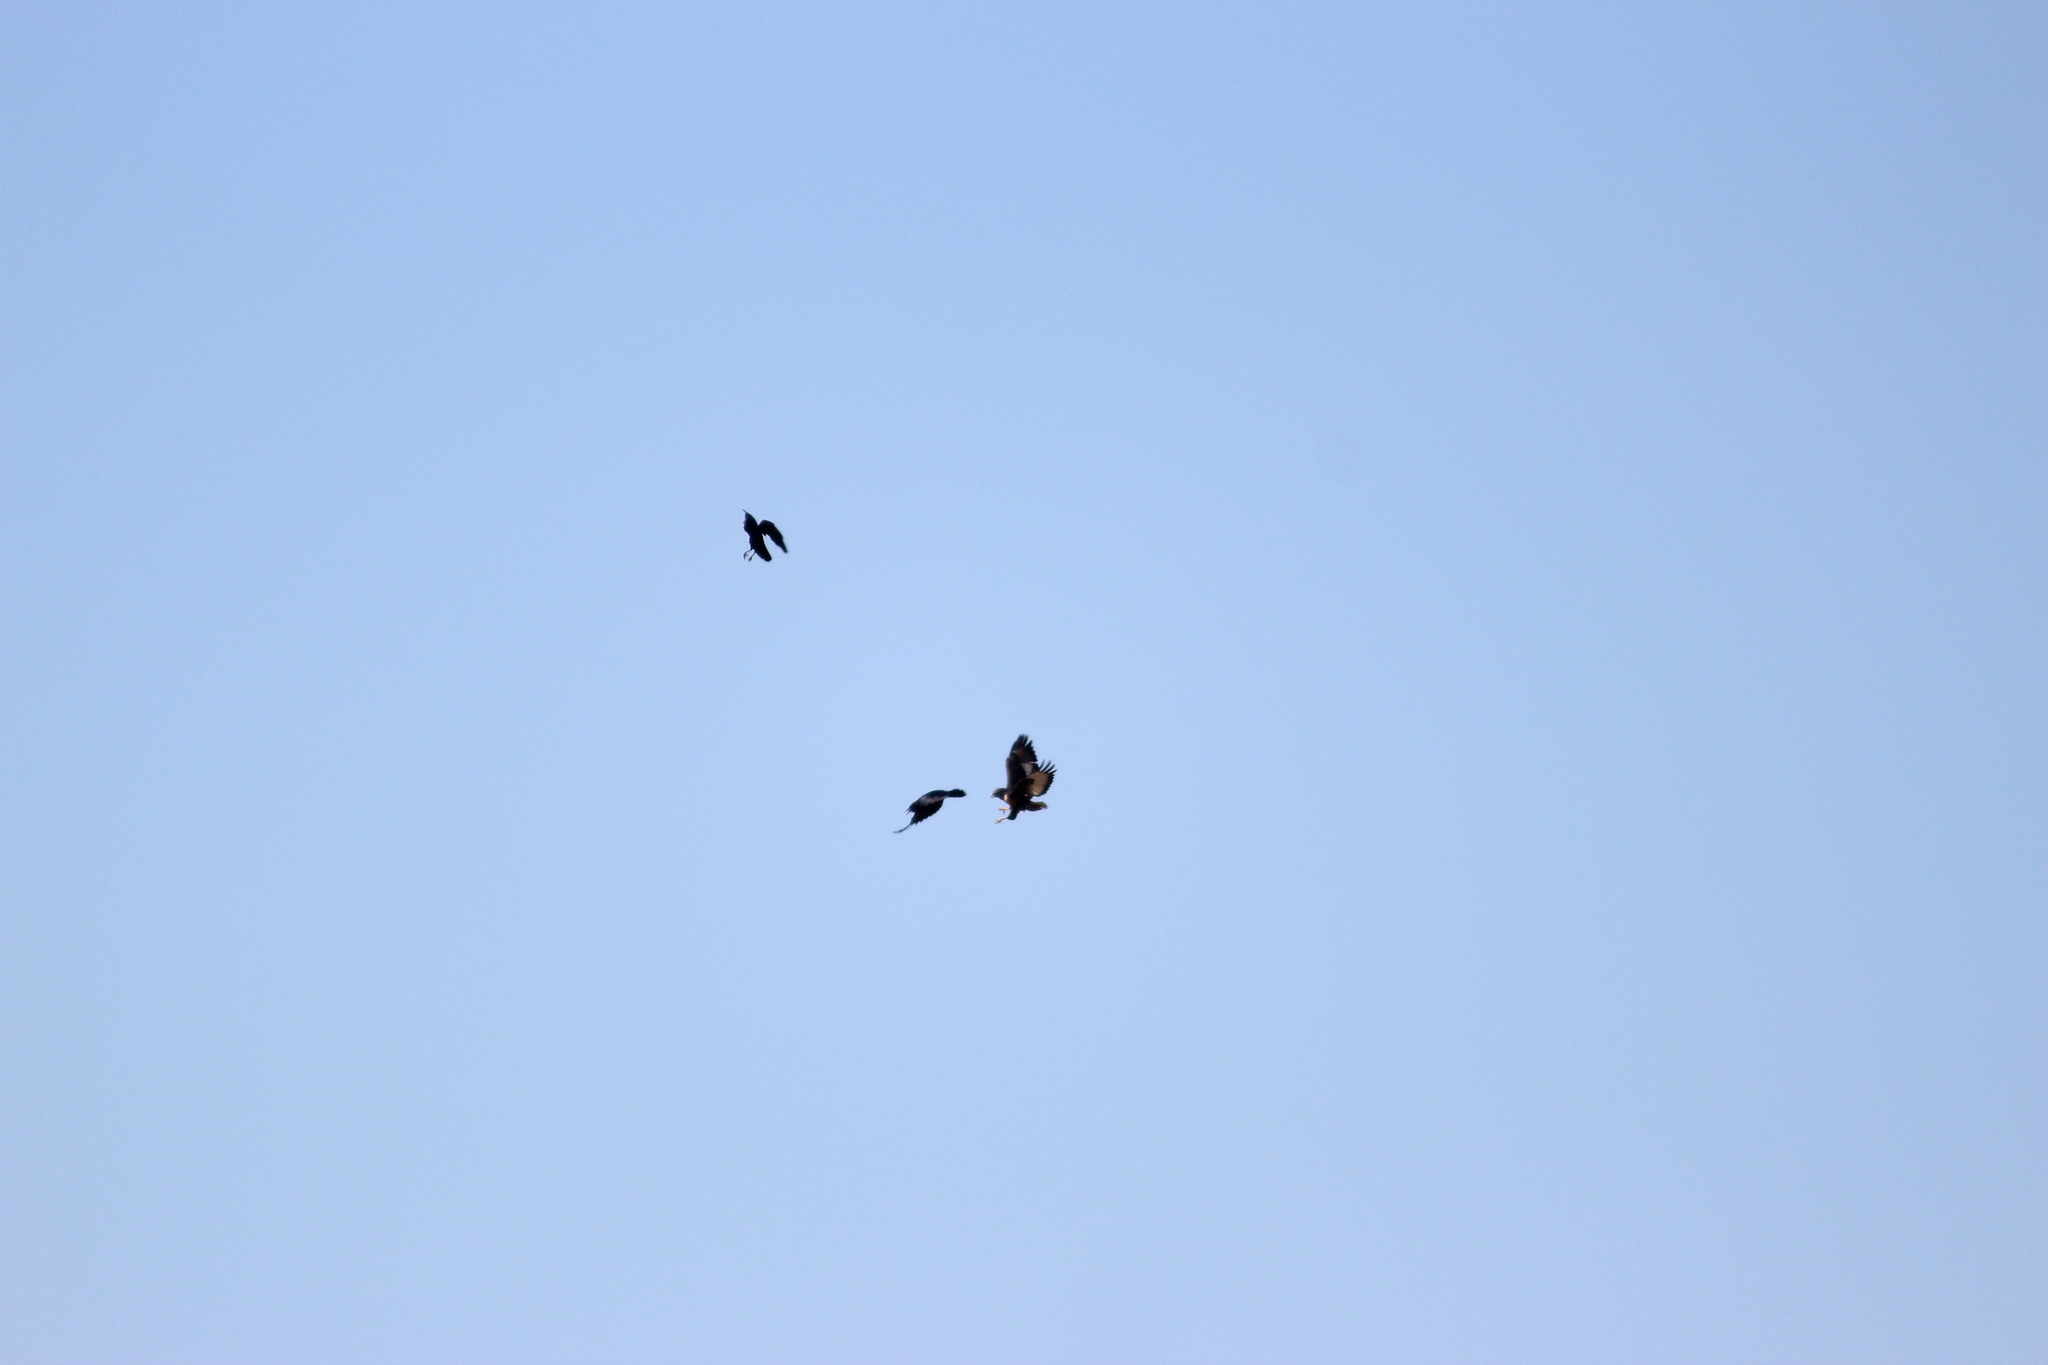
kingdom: Animalia
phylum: Chordata
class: Aves
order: Passeriformes
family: Corvidae
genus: Corvus
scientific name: Corvus capensis
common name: Cape crow
